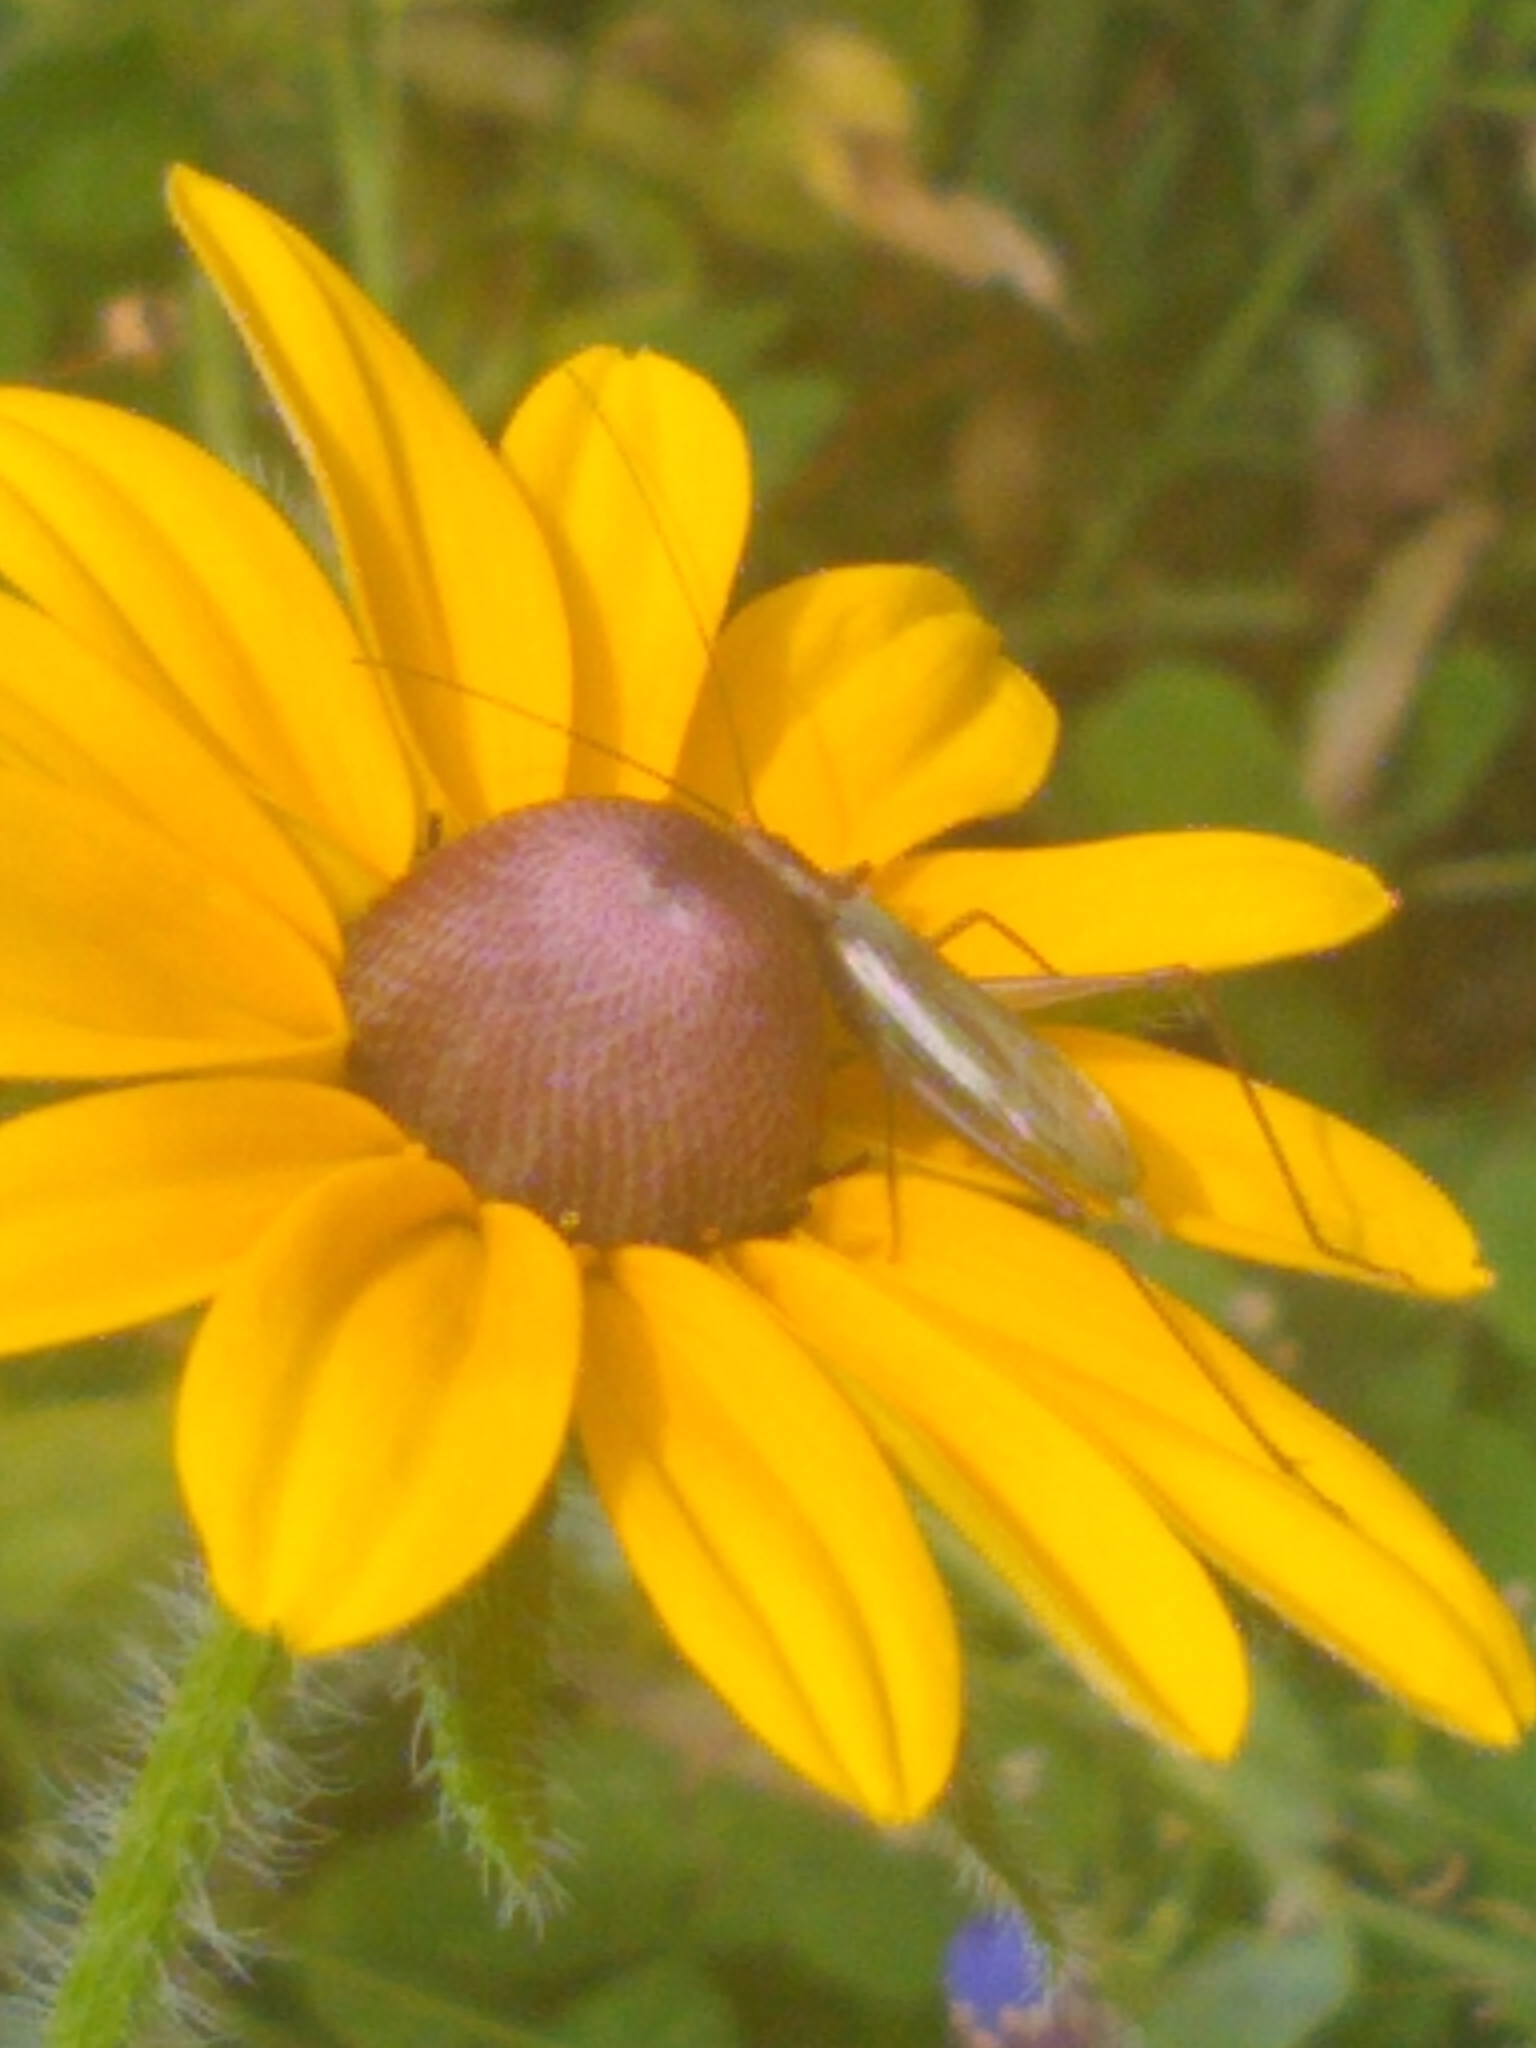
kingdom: Animalia
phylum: Arthropoda
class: Insecta
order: Orthoptera
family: Gryllidae
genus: Oecanthus
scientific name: Oecanthus pini
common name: Pine tree cricket
